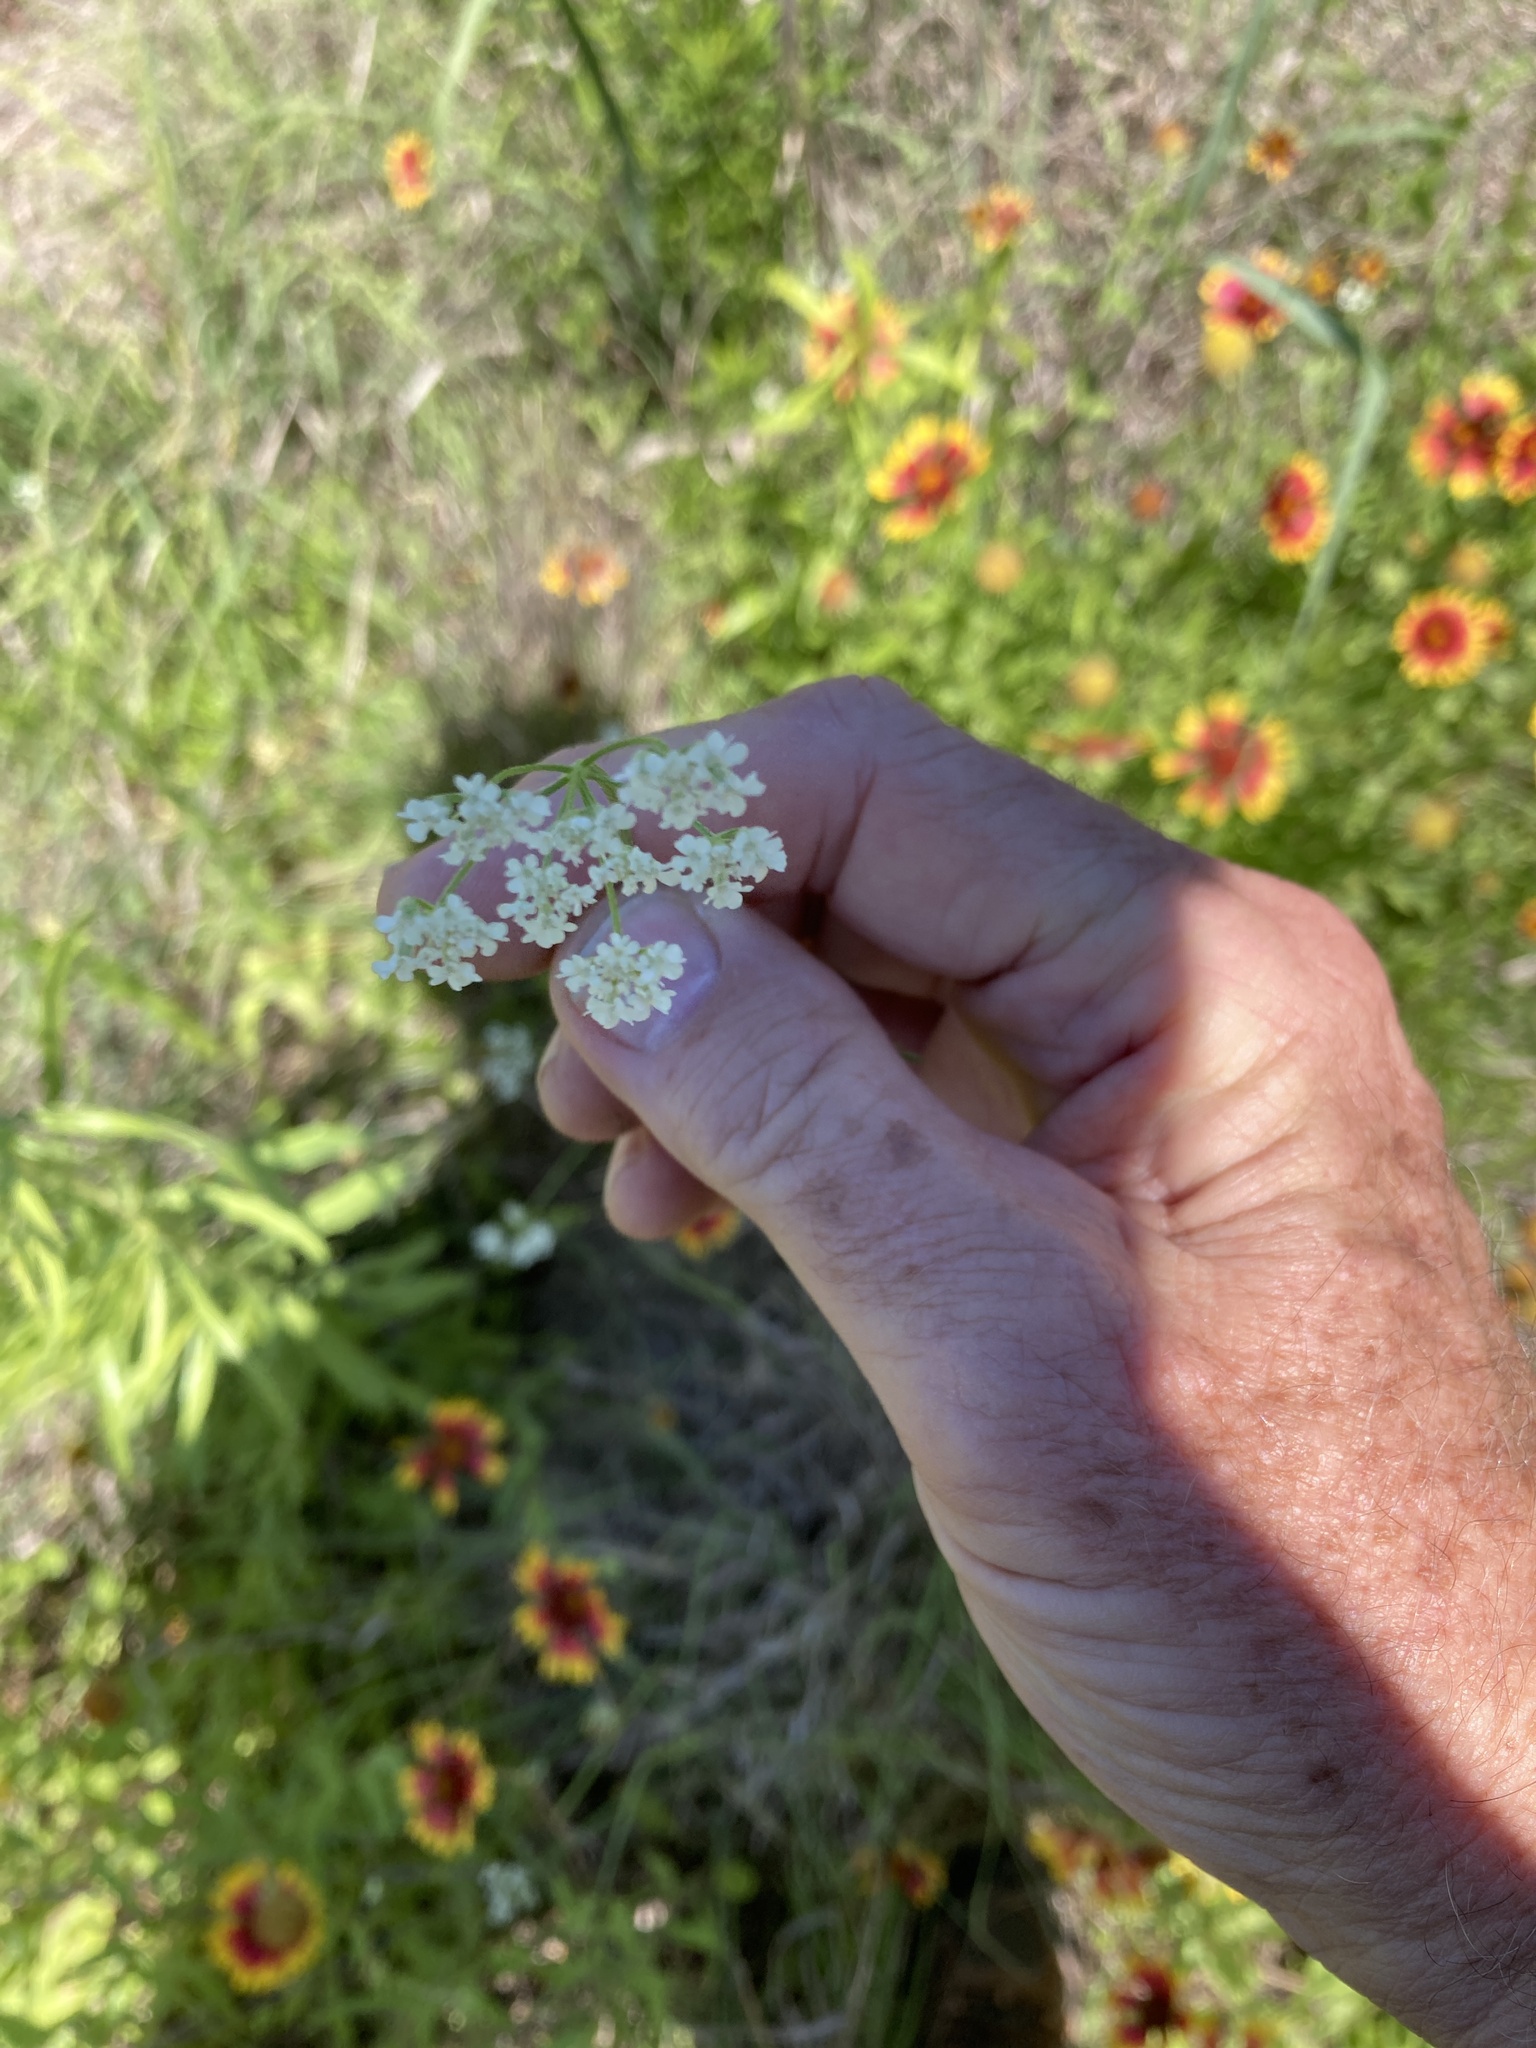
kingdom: Plantae
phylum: Tracheophyta
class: Magnoliopsida
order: Apiales
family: Apiaceae
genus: Torilis
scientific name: Torilis arvensis
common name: Spreading hedge-parsley
